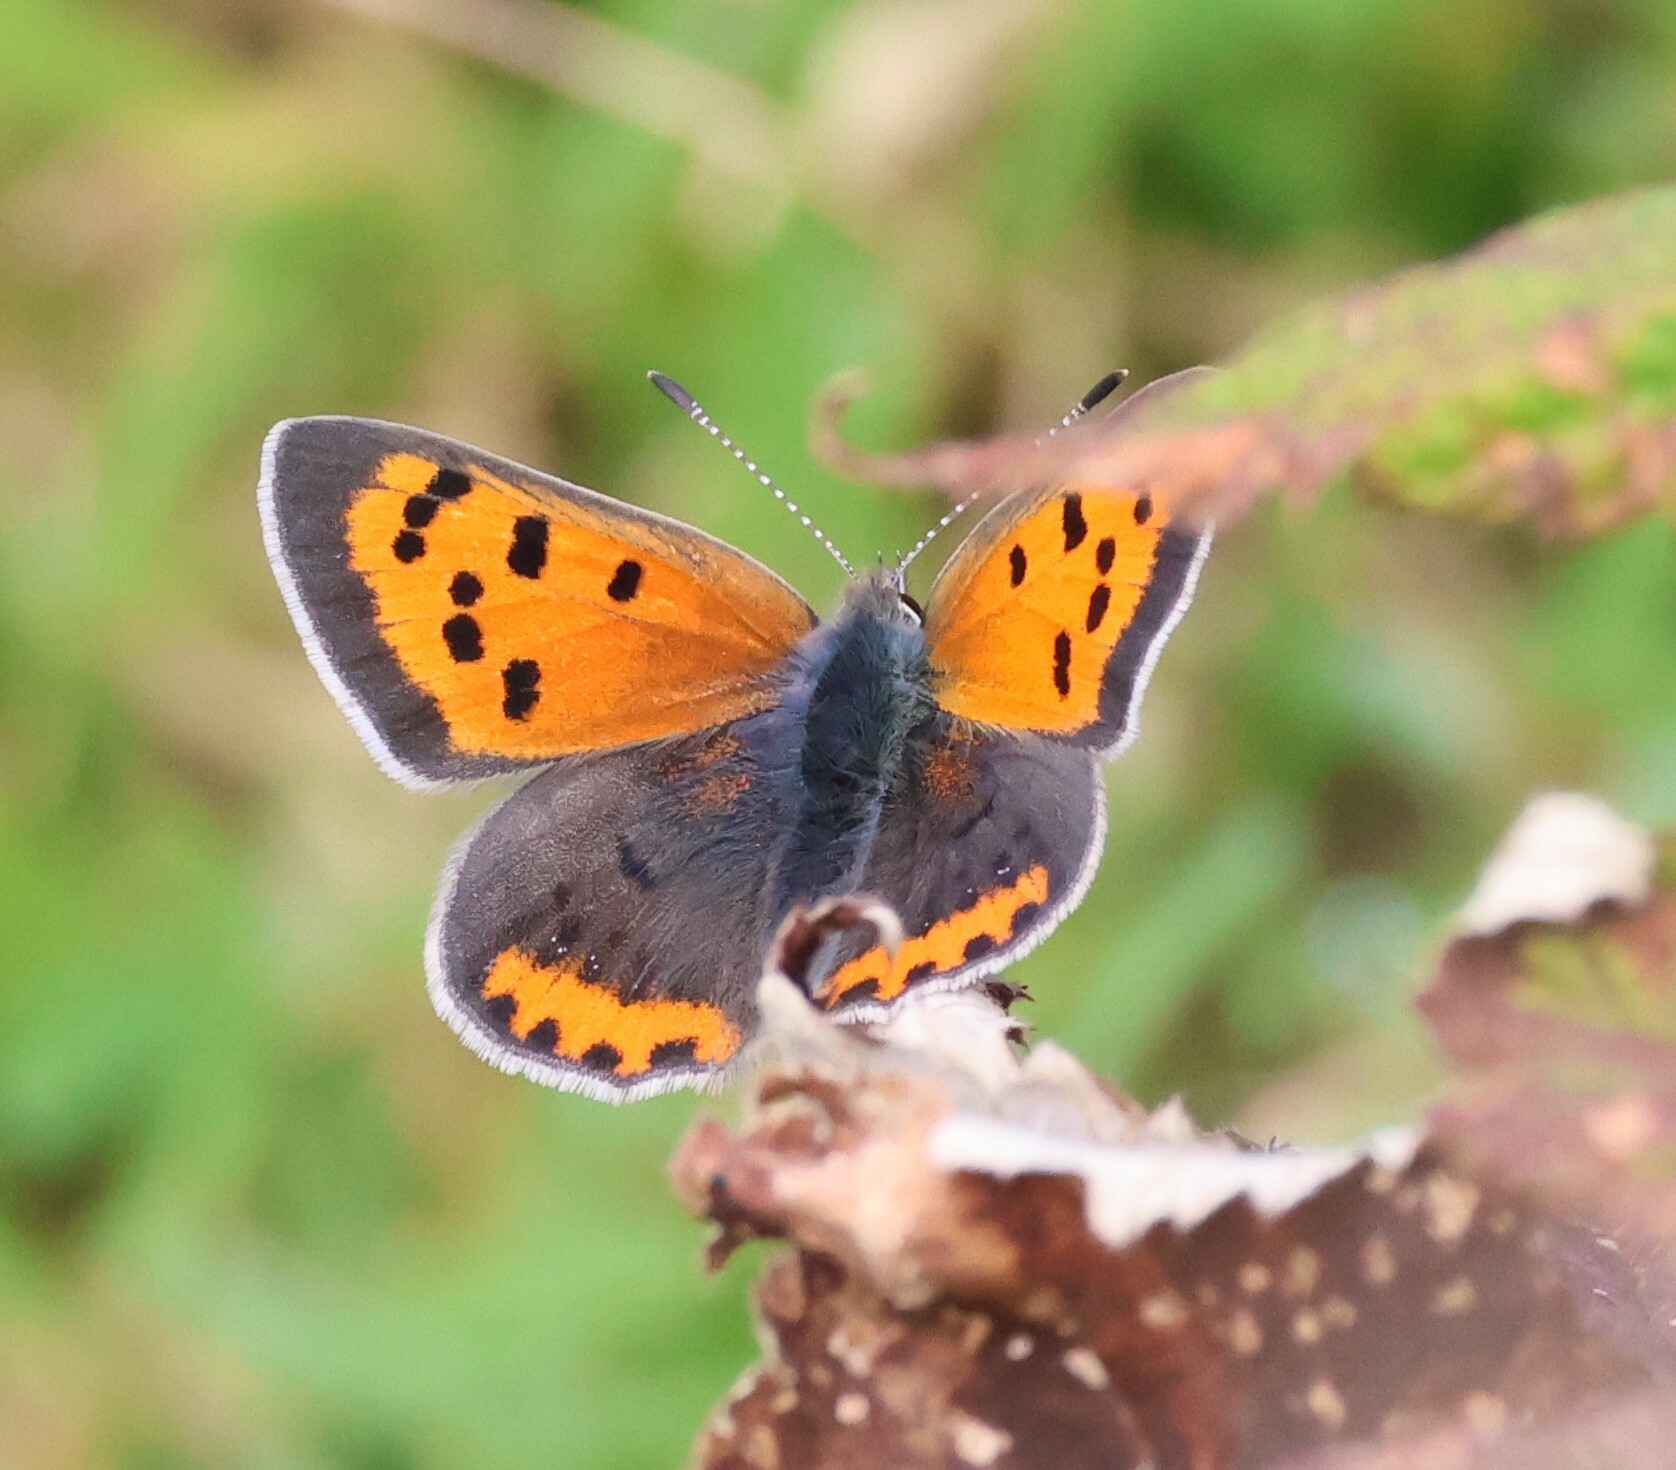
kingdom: Animalia
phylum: Arthropoda
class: Insecta
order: Lepidoptera
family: Lycaenidae
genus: Lycaena
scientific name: Lycaena hypophlaeas
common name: American copper
